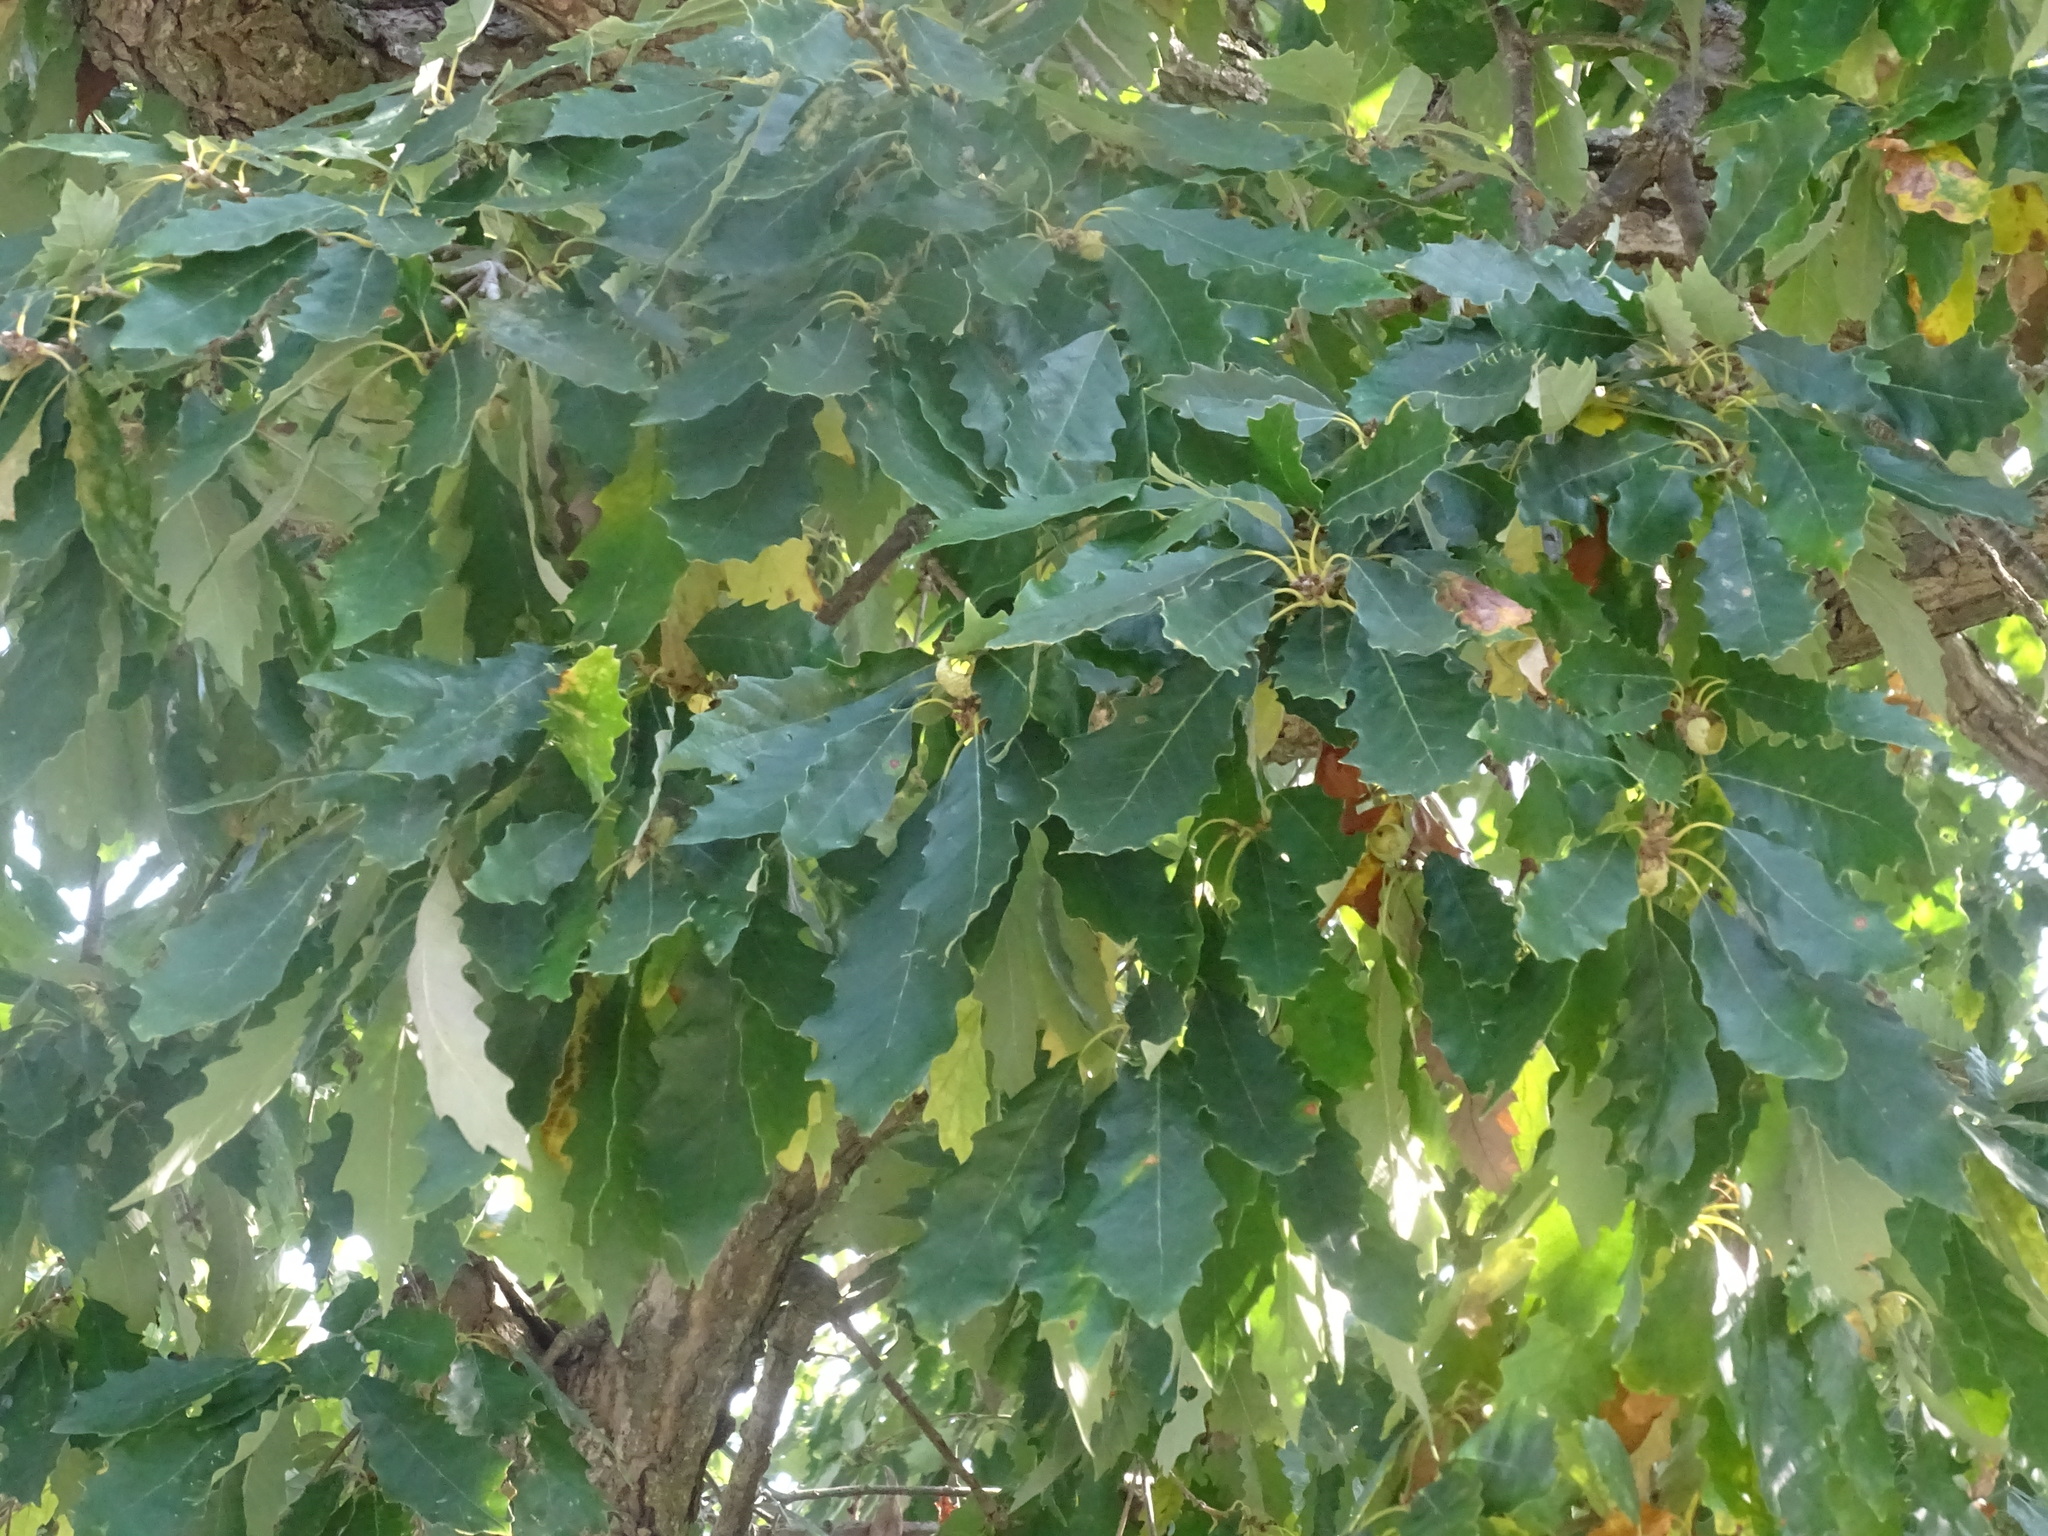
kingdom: Plantae
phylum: Tracheophyta
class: Magnoliopsida
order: Fagales
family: Fagaceae
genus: Quercus
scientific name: Quercus muehlenbergii
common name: Chinkapin oak
